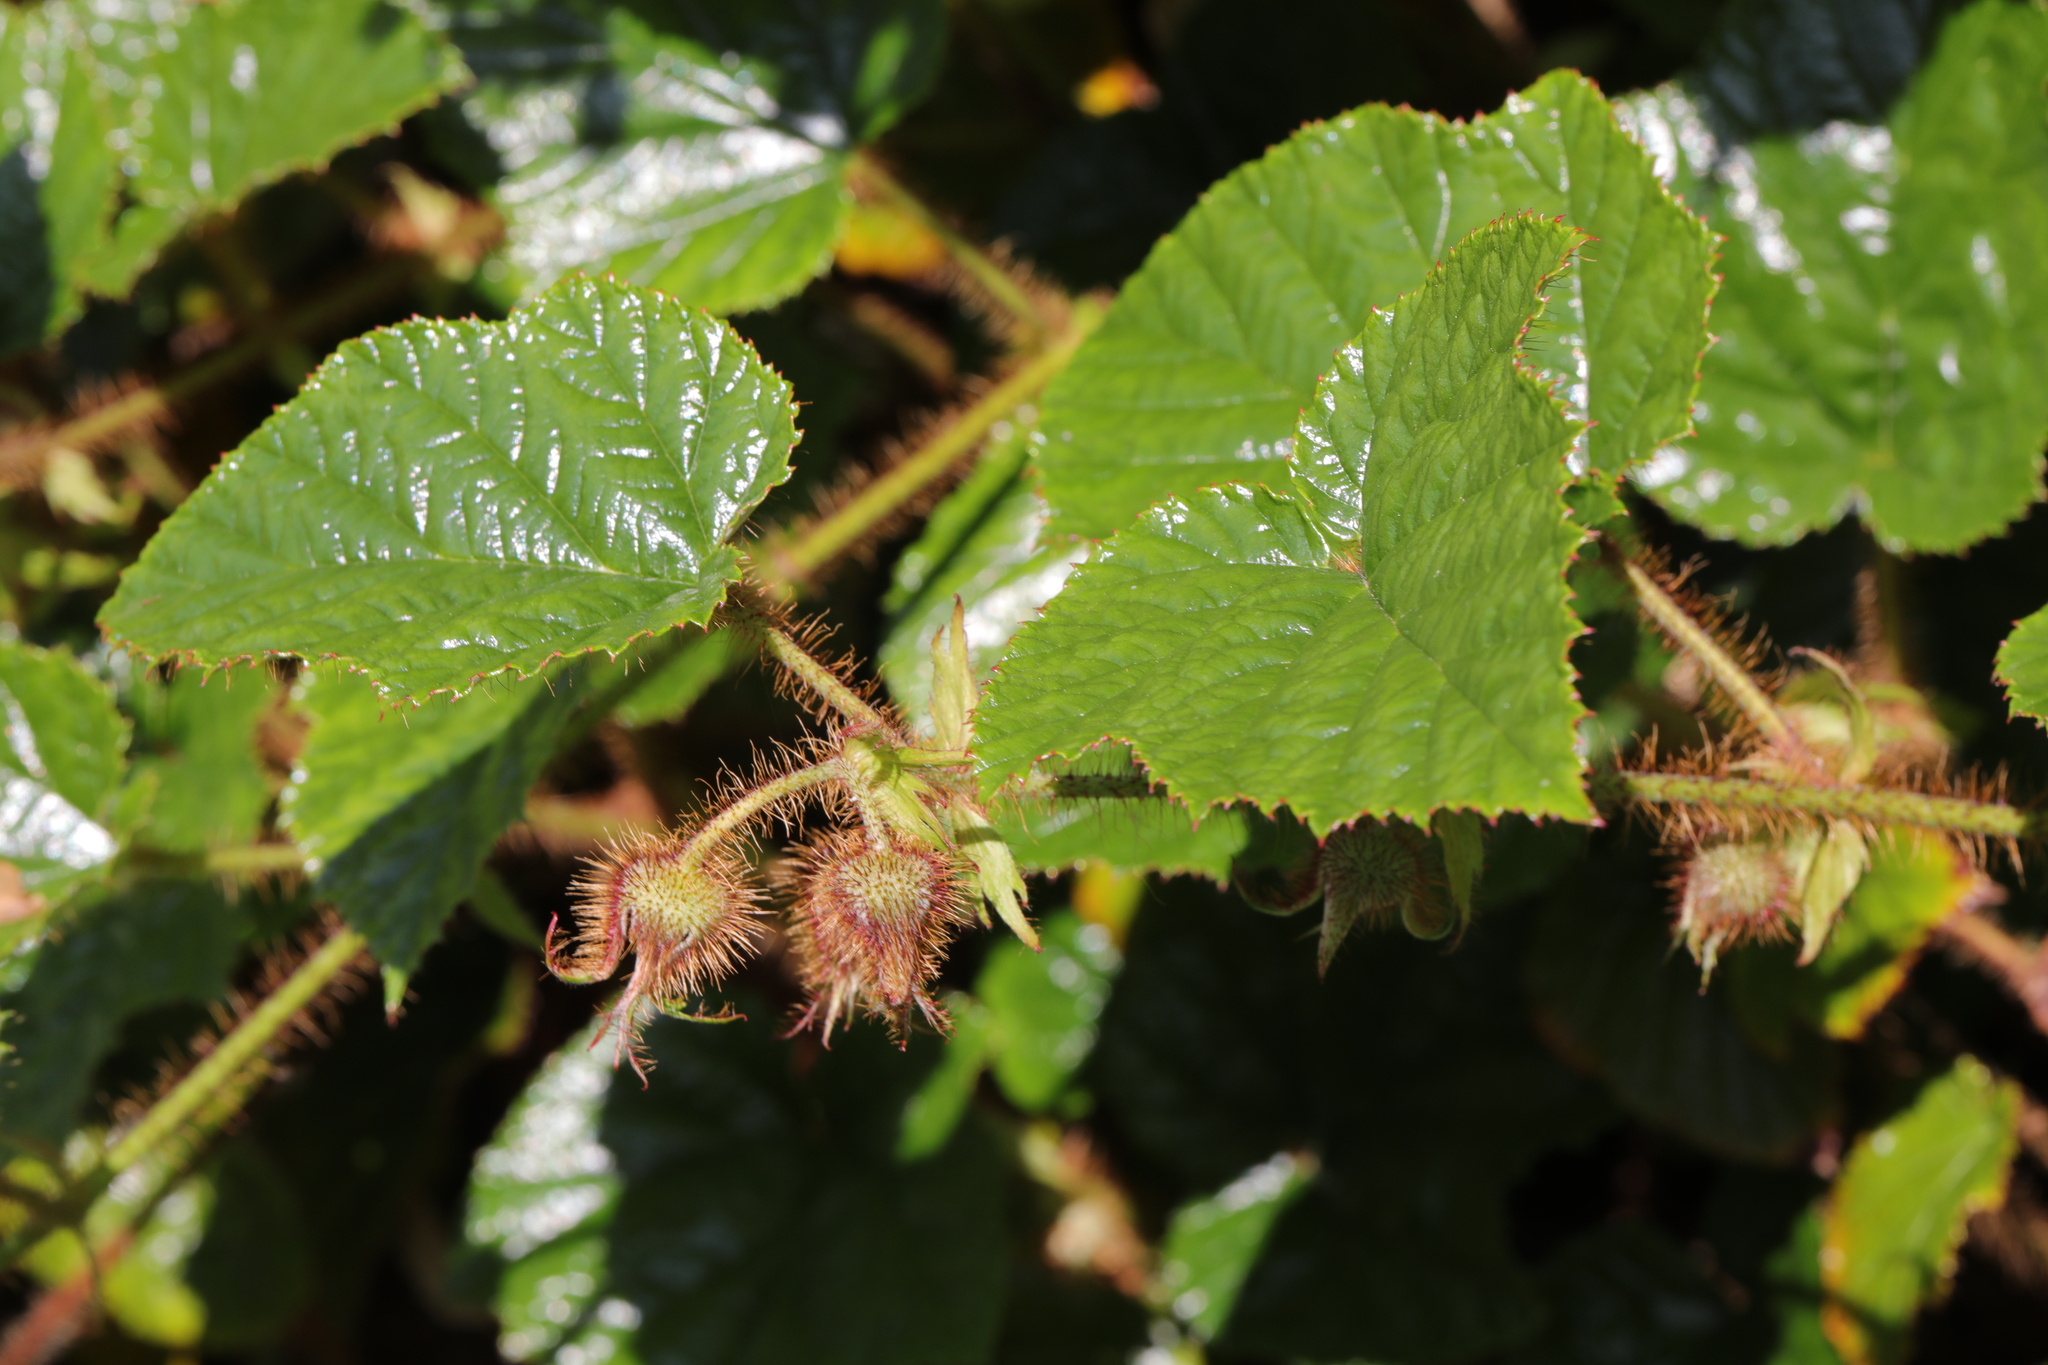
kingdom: Plantae
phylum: Tracheophyta
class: Magnoliopsida
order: Rosales
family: Rosaceae
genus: Rubus
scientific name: Rubus tricolor
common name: Chinese bramble
